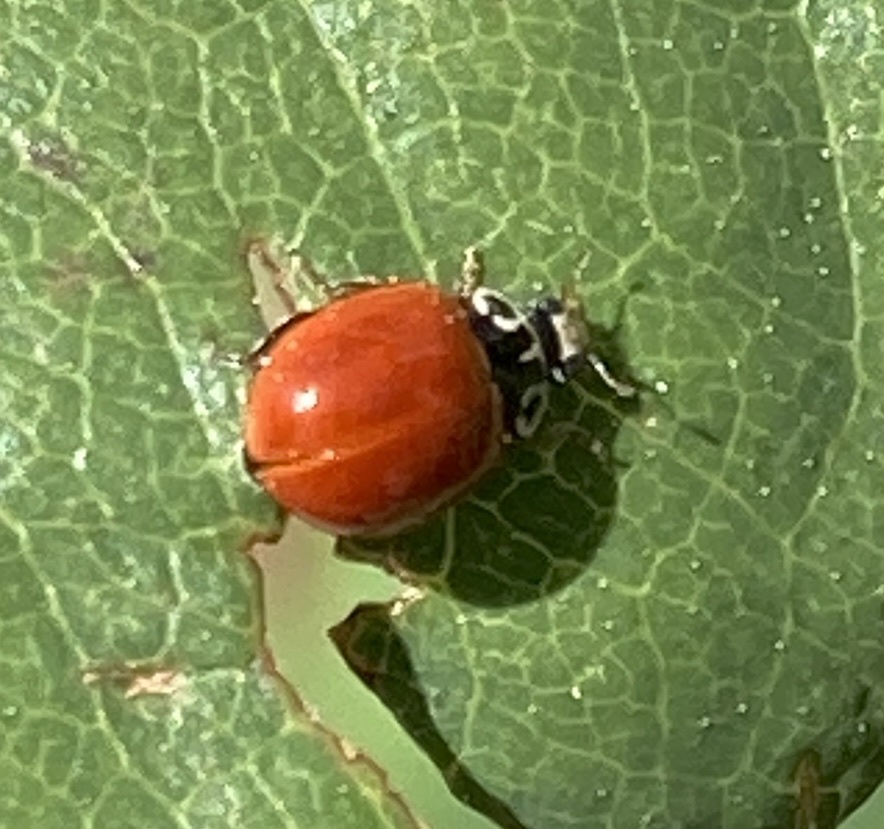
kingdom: Animalia
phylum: Arthropoda
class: Insecta
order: Coleoptera
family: Coccinellidae
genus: Cycloneda
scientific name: Cycloneda polita
